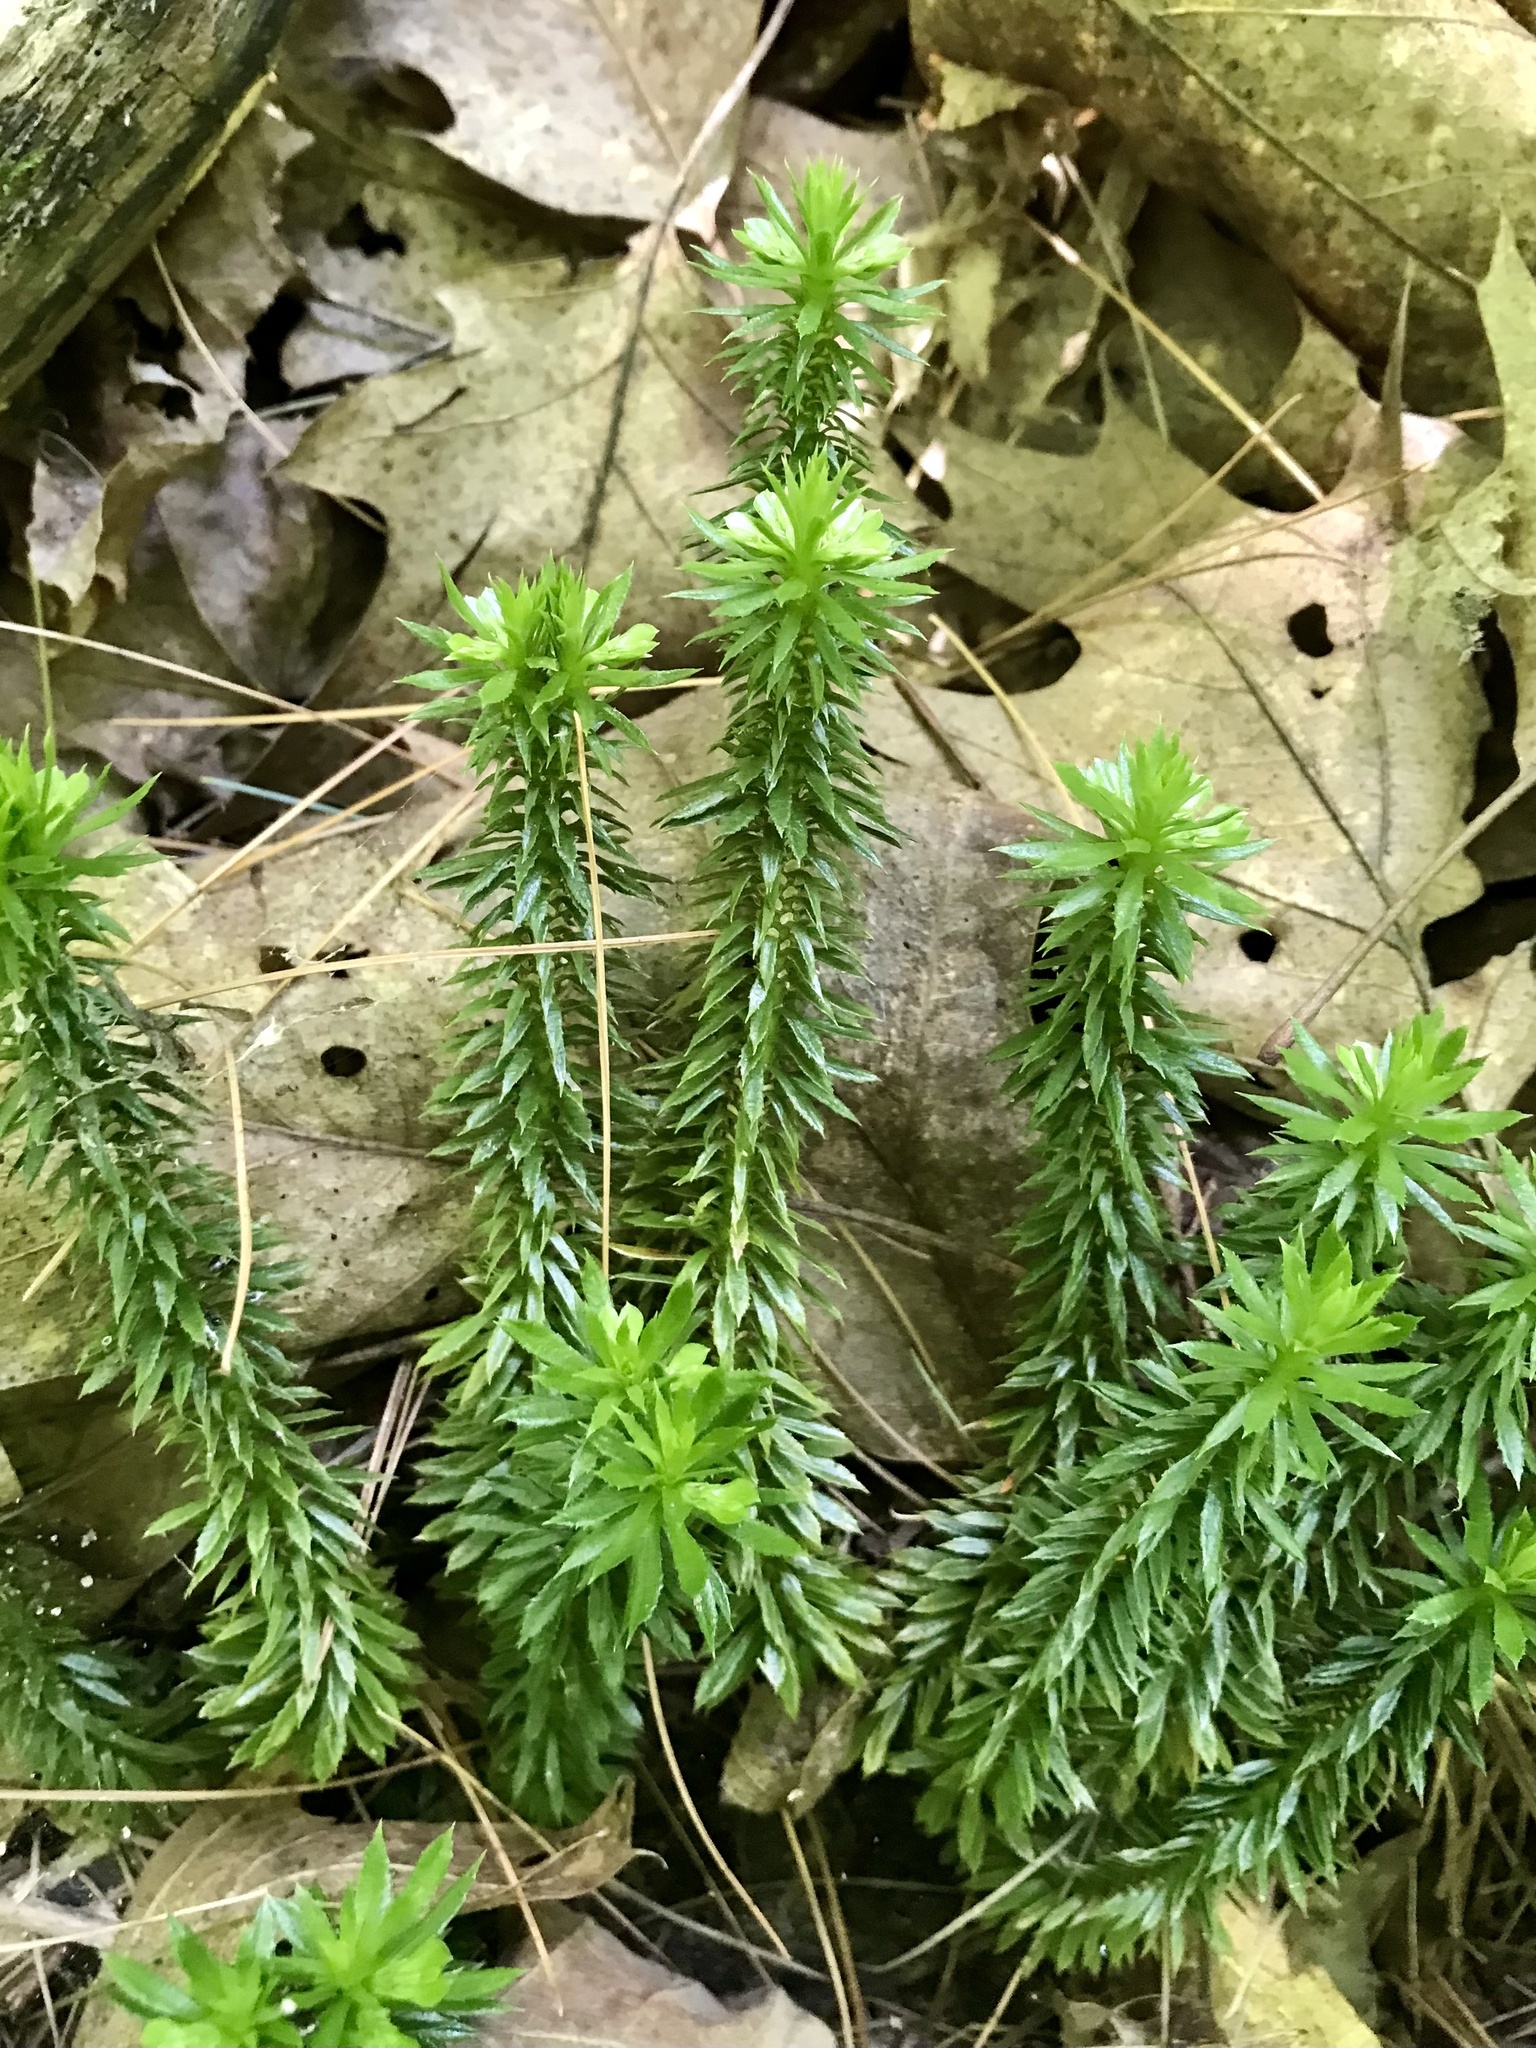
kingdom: Plantae
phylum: Tracheophyta
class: Lycopodiopsida
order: Lycopodiales
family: Lycopodiaceae
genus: Huperzia
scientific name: Huperzia lucidula
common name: Shining clubmoss
